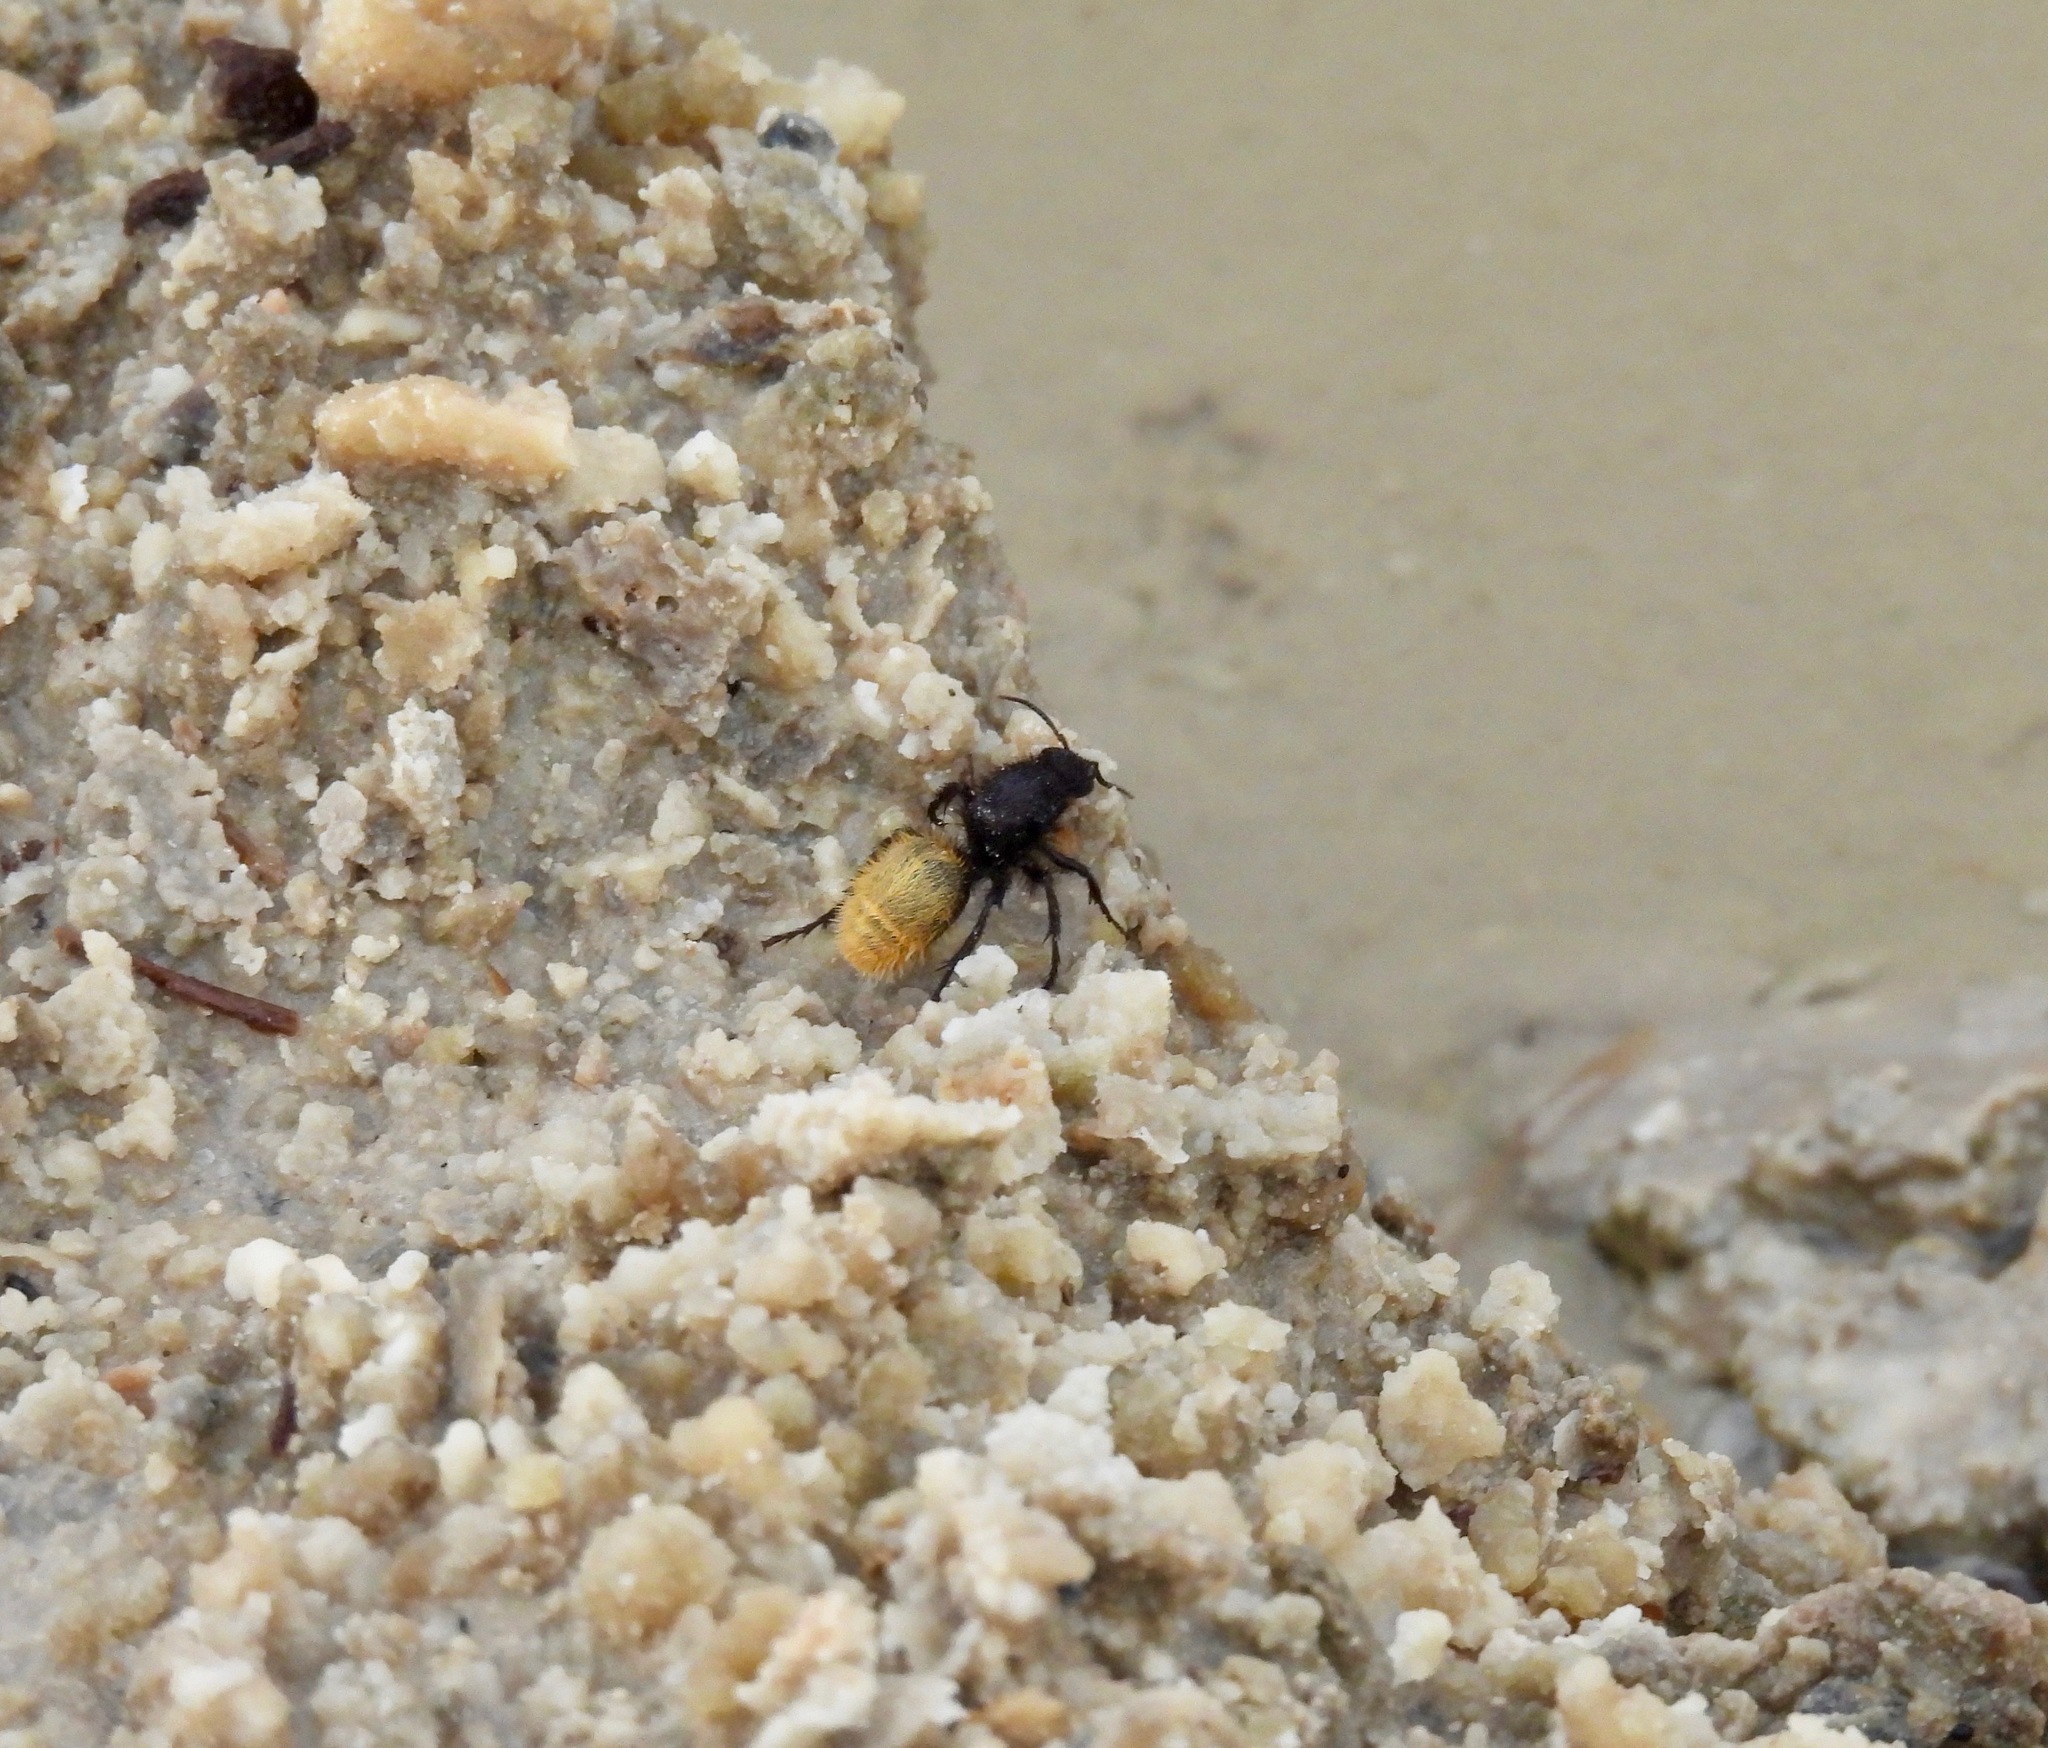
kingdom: Animalia
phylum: Arthropoda
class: Insecta
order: Hymenoptera
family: Mutillidae
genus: Dasymutilla
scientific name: Dasymutilla
